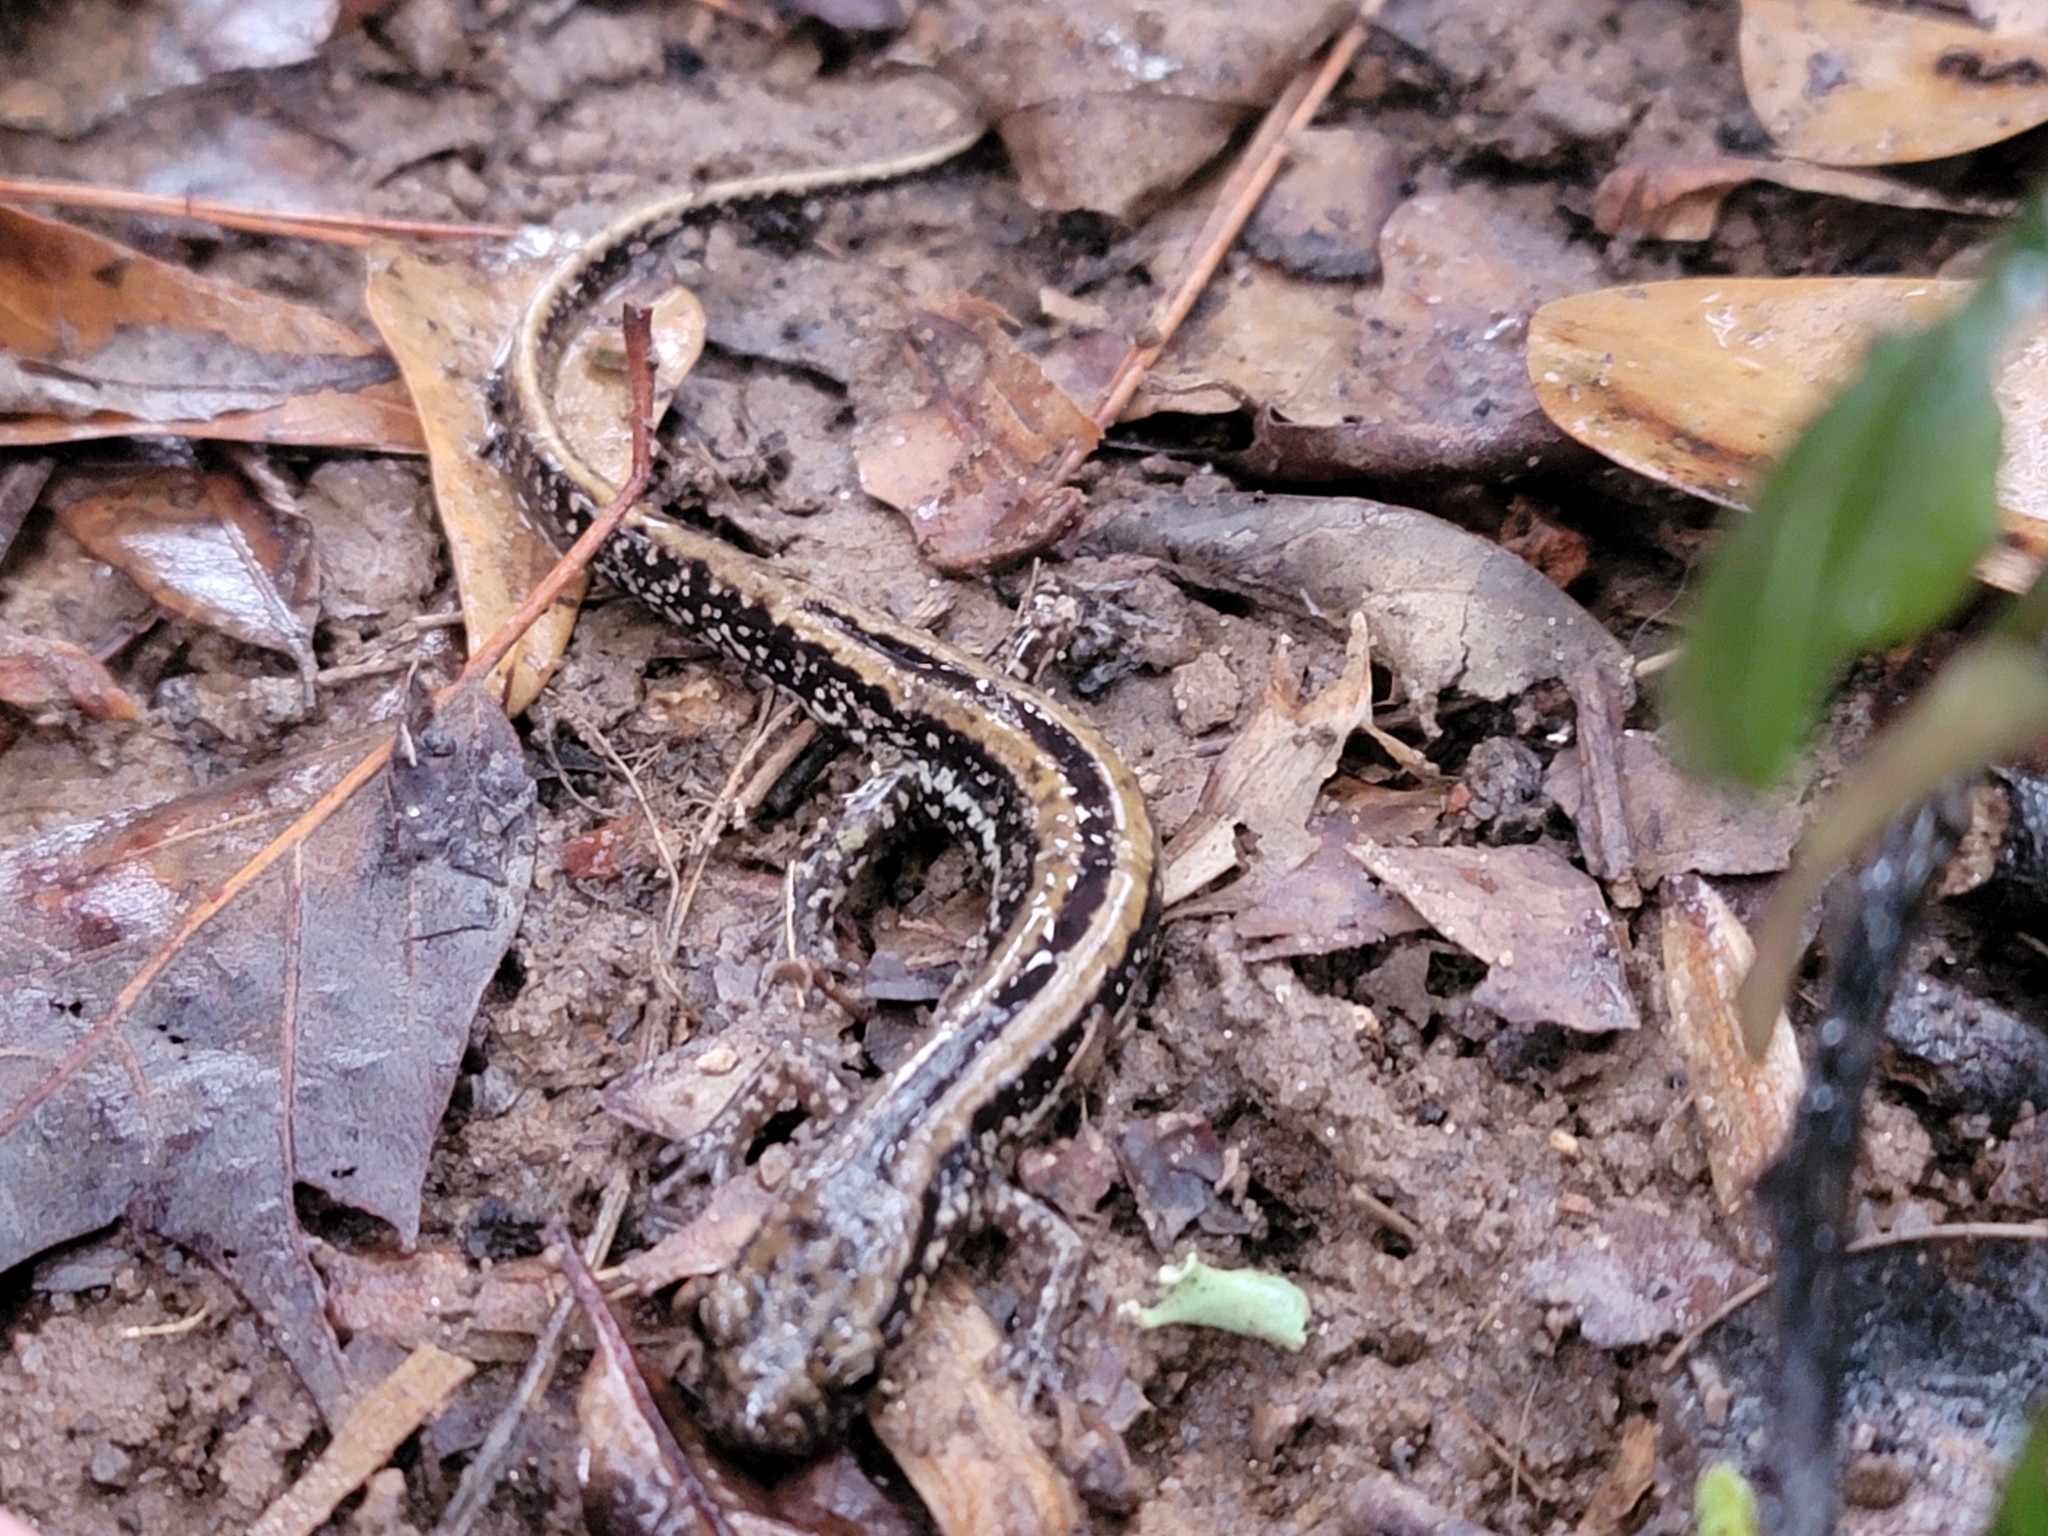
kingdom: Animalia
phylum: Chordata
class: Amphibia
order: Caudata
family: Plethodontidae
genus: Eurycea
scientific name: Eurycea guttolineata
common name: Three-lined salamander
